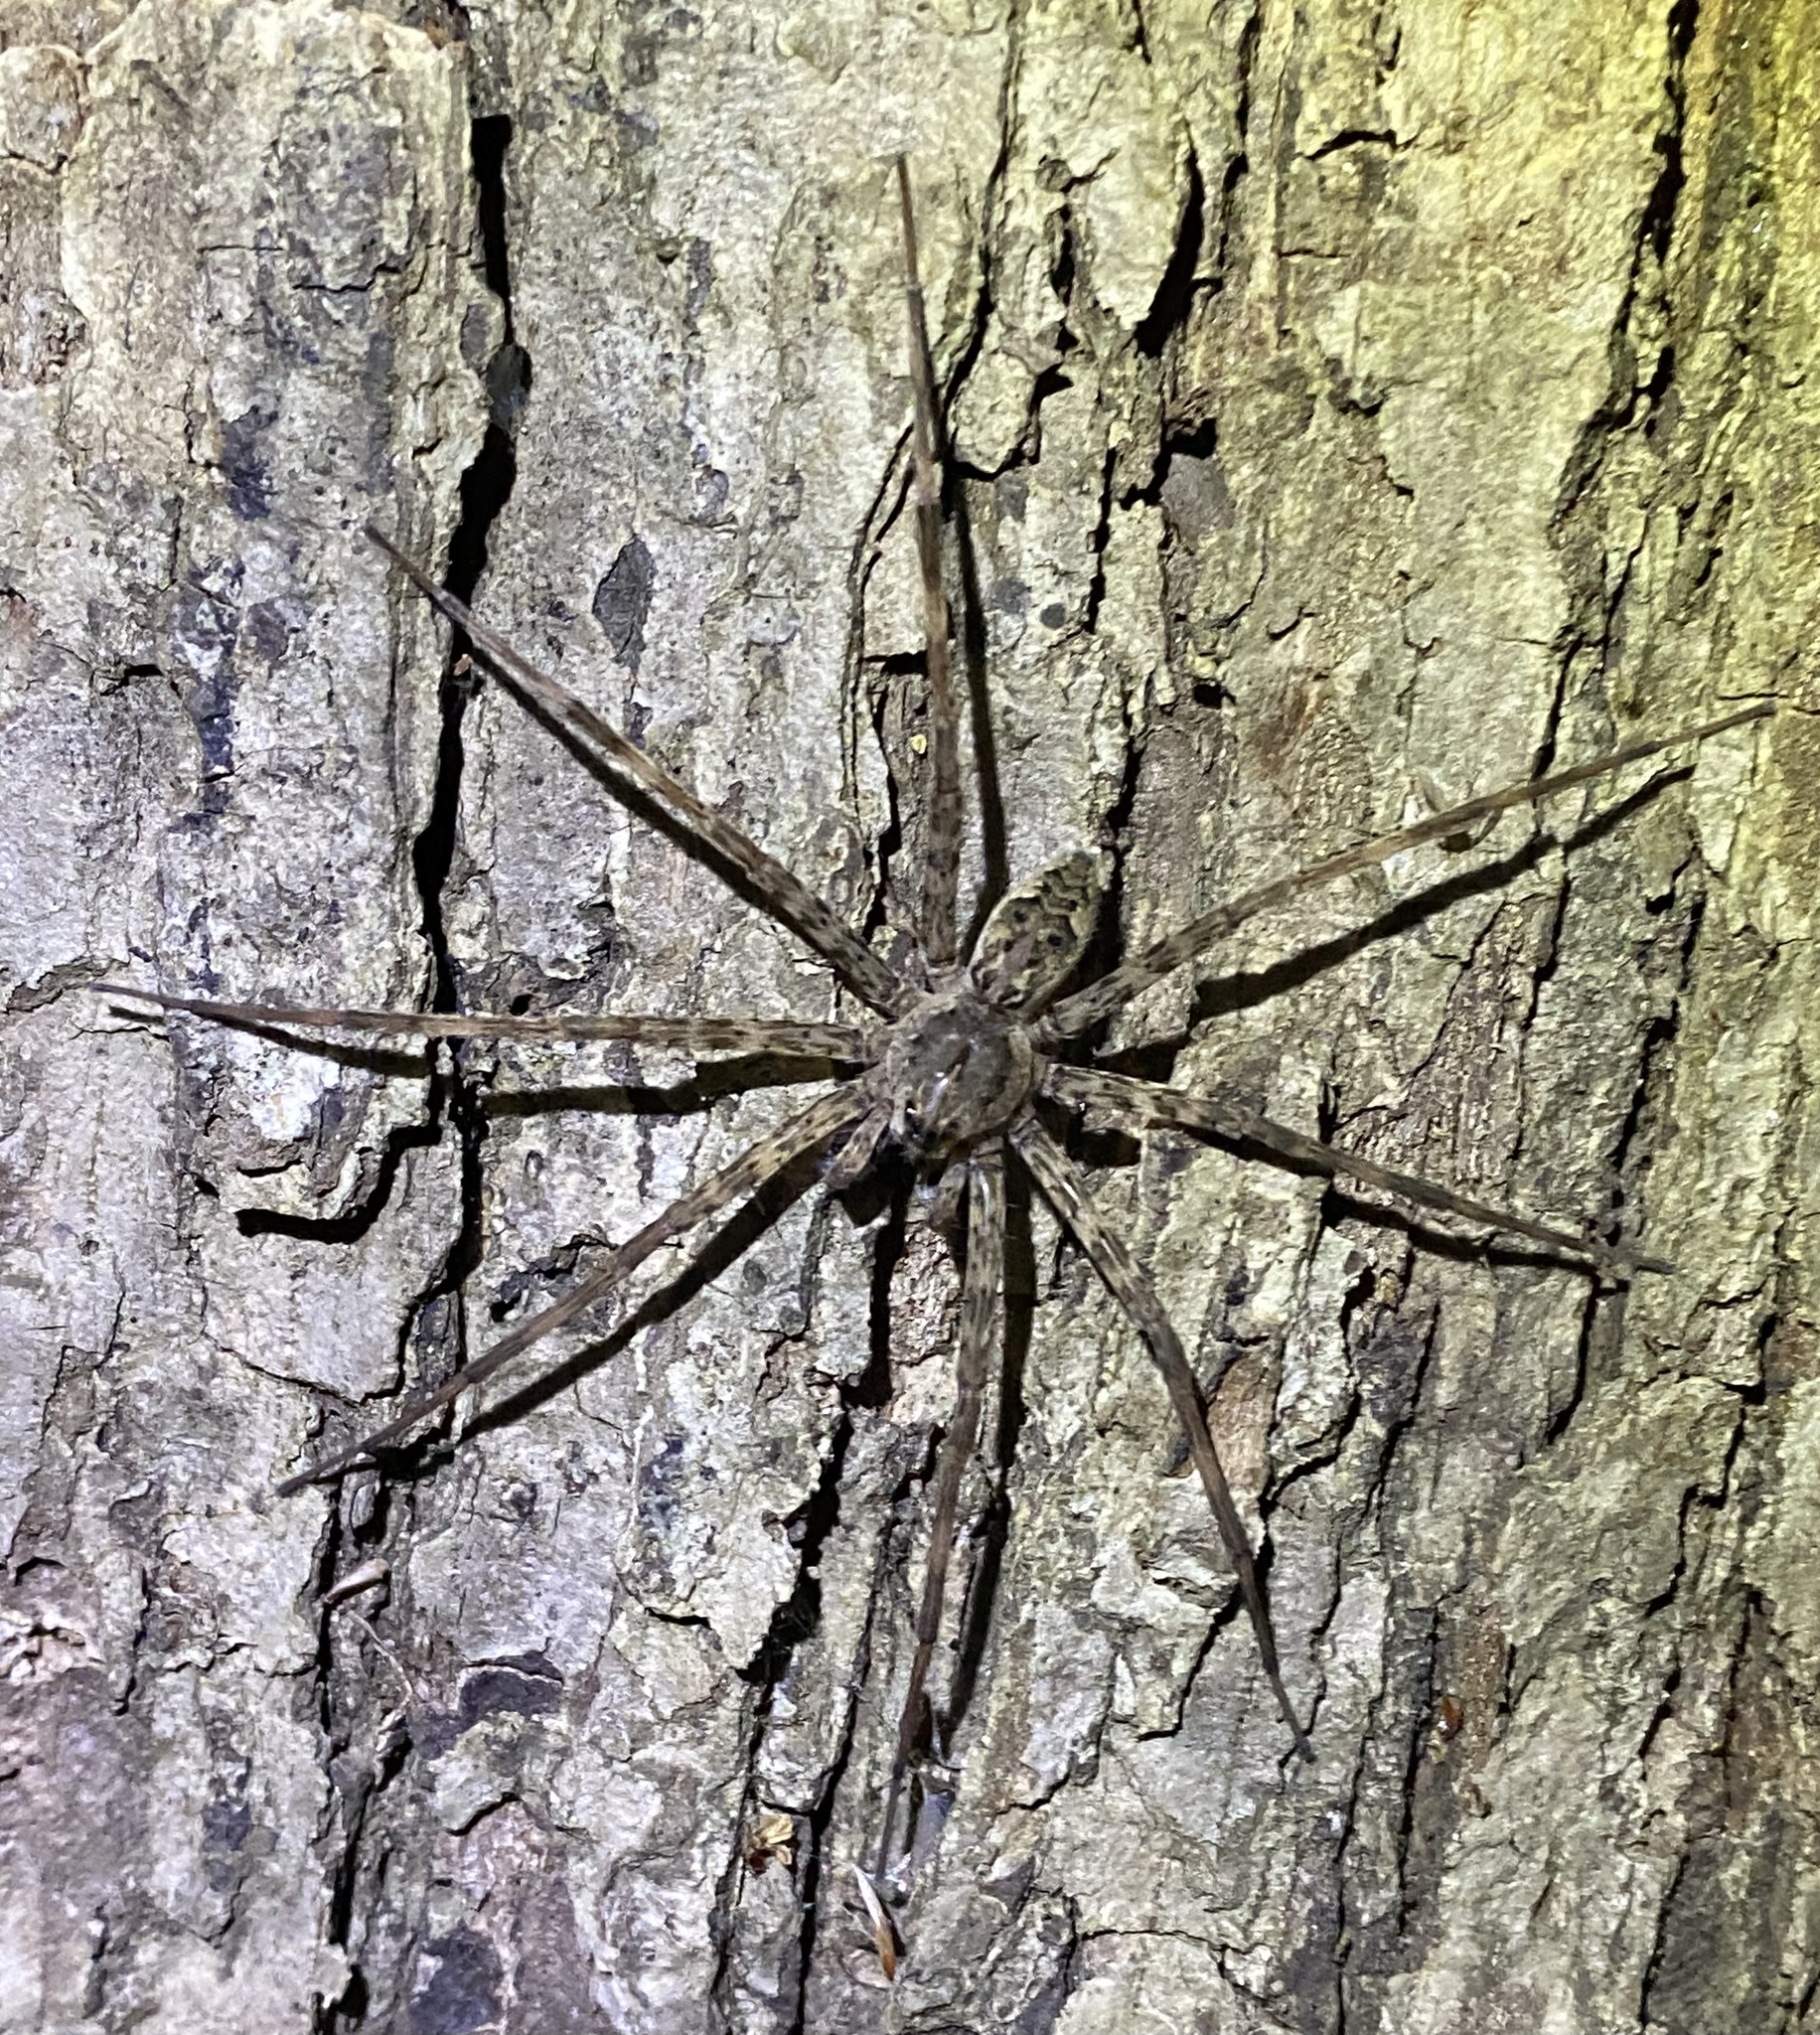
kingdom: Animalia
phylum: Arthropoda
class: Arachnida
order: Araneae
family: Pisauridae
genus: Dolomedes
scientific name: Dolomedes tenebrosus
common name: Dark fishing spider
